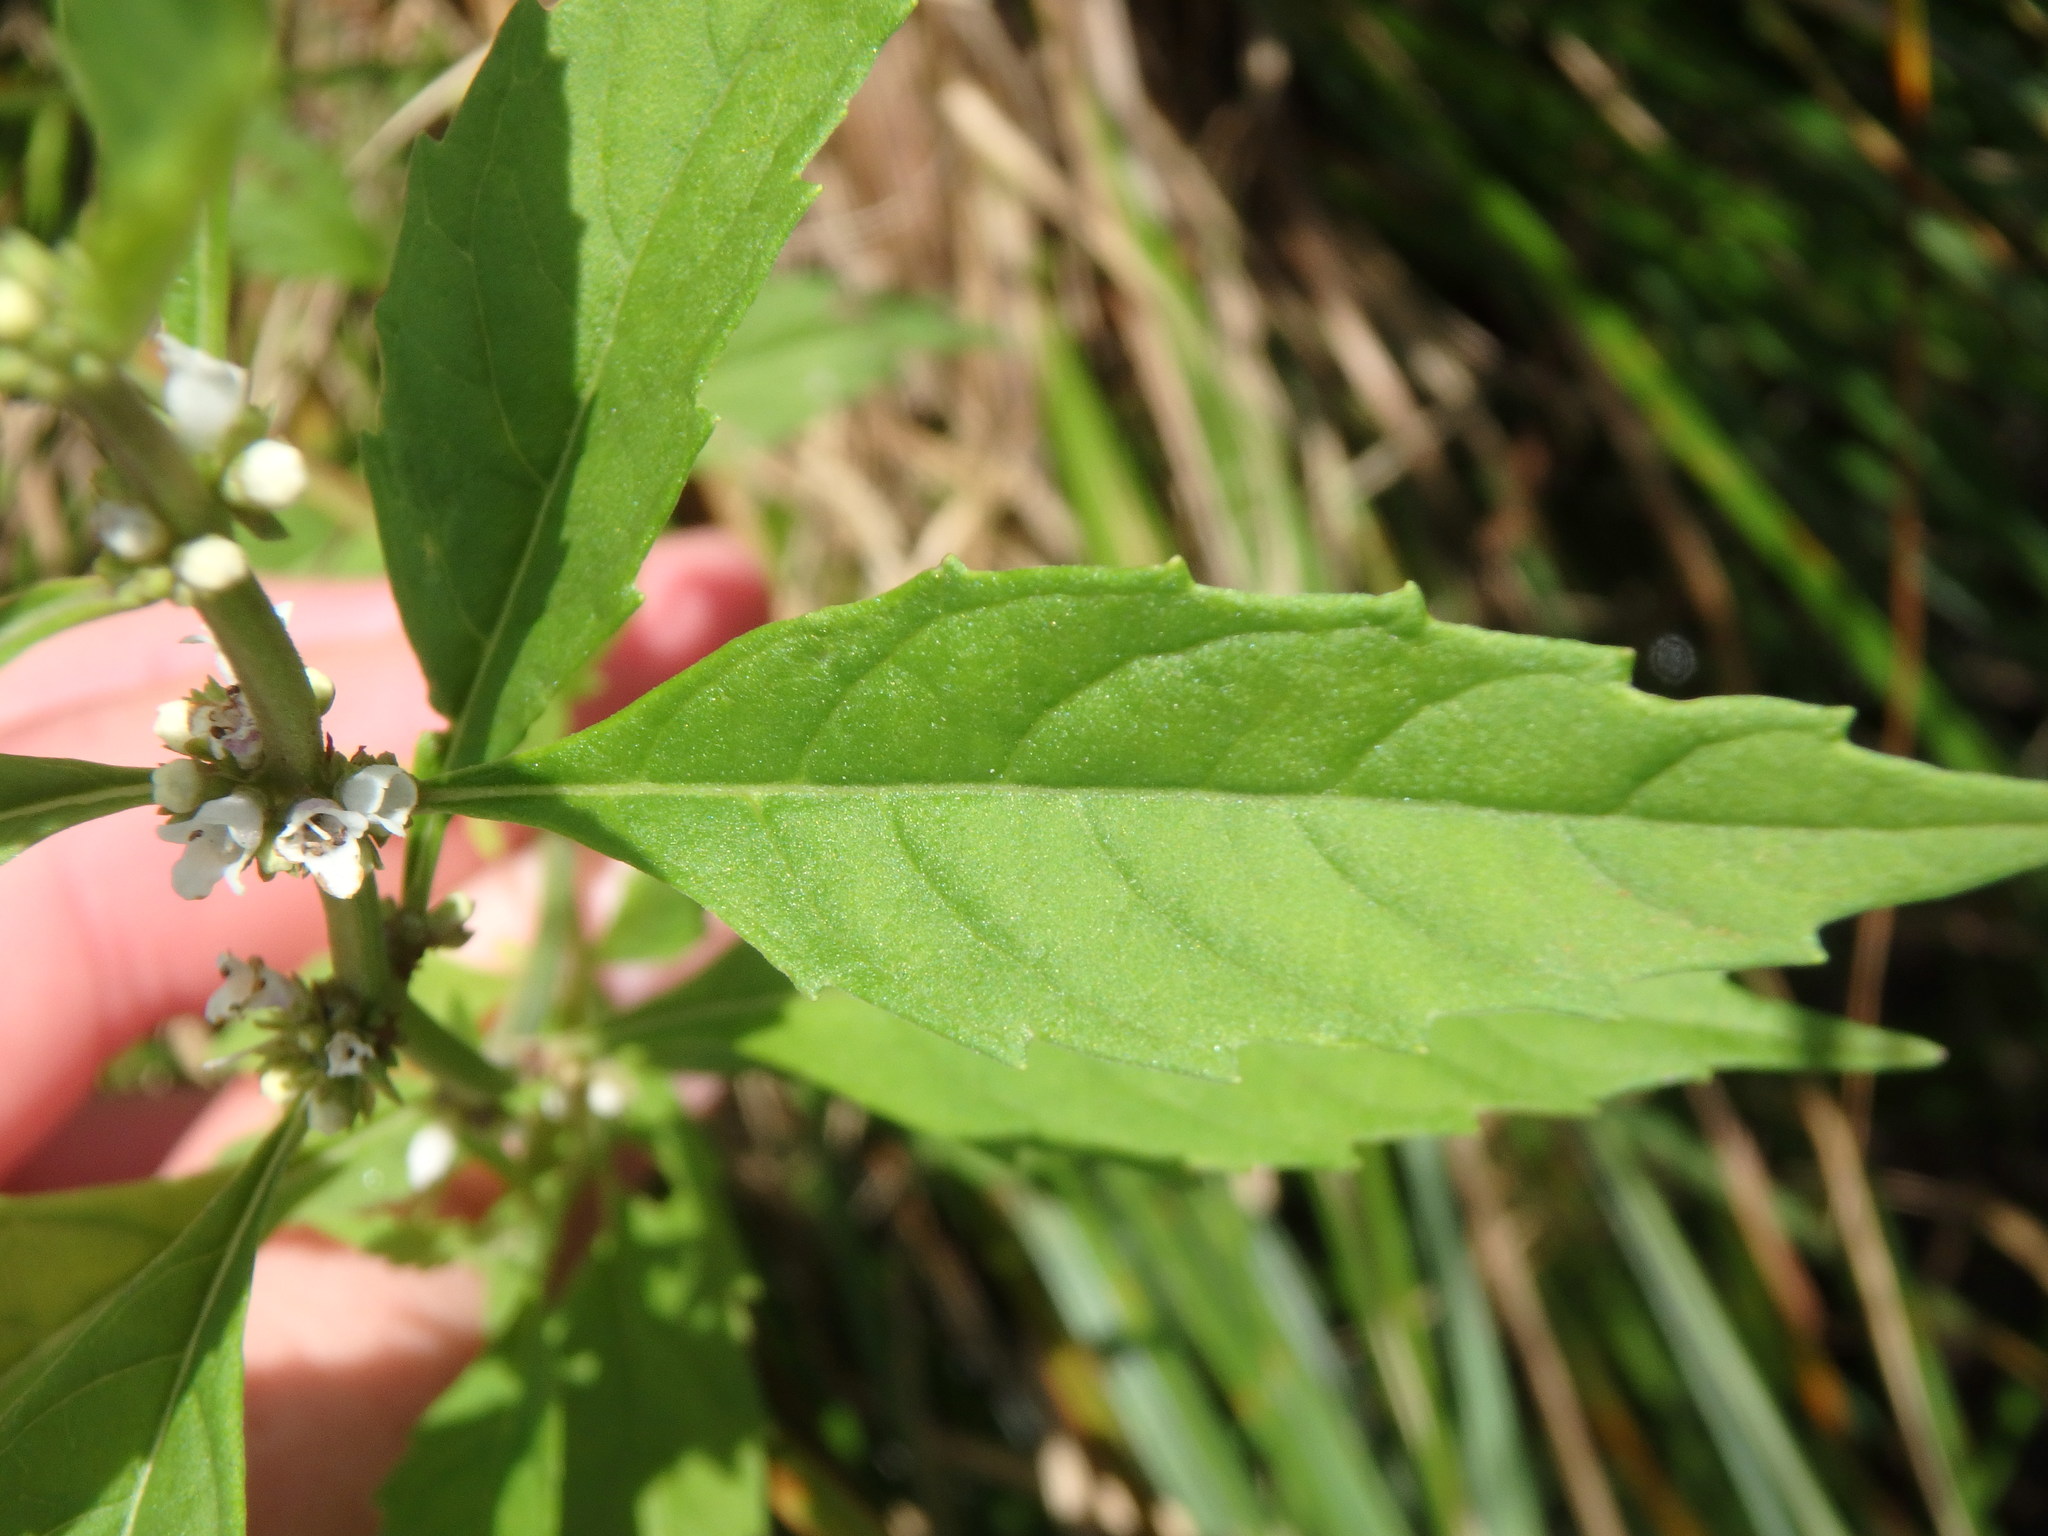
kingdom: Plantae
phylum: Tracheophyta
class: Magnoliopsida
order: Lamiales
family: Lamiaceae
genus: Lycopus
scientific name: Lycopus americanus
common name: American bugleweed
